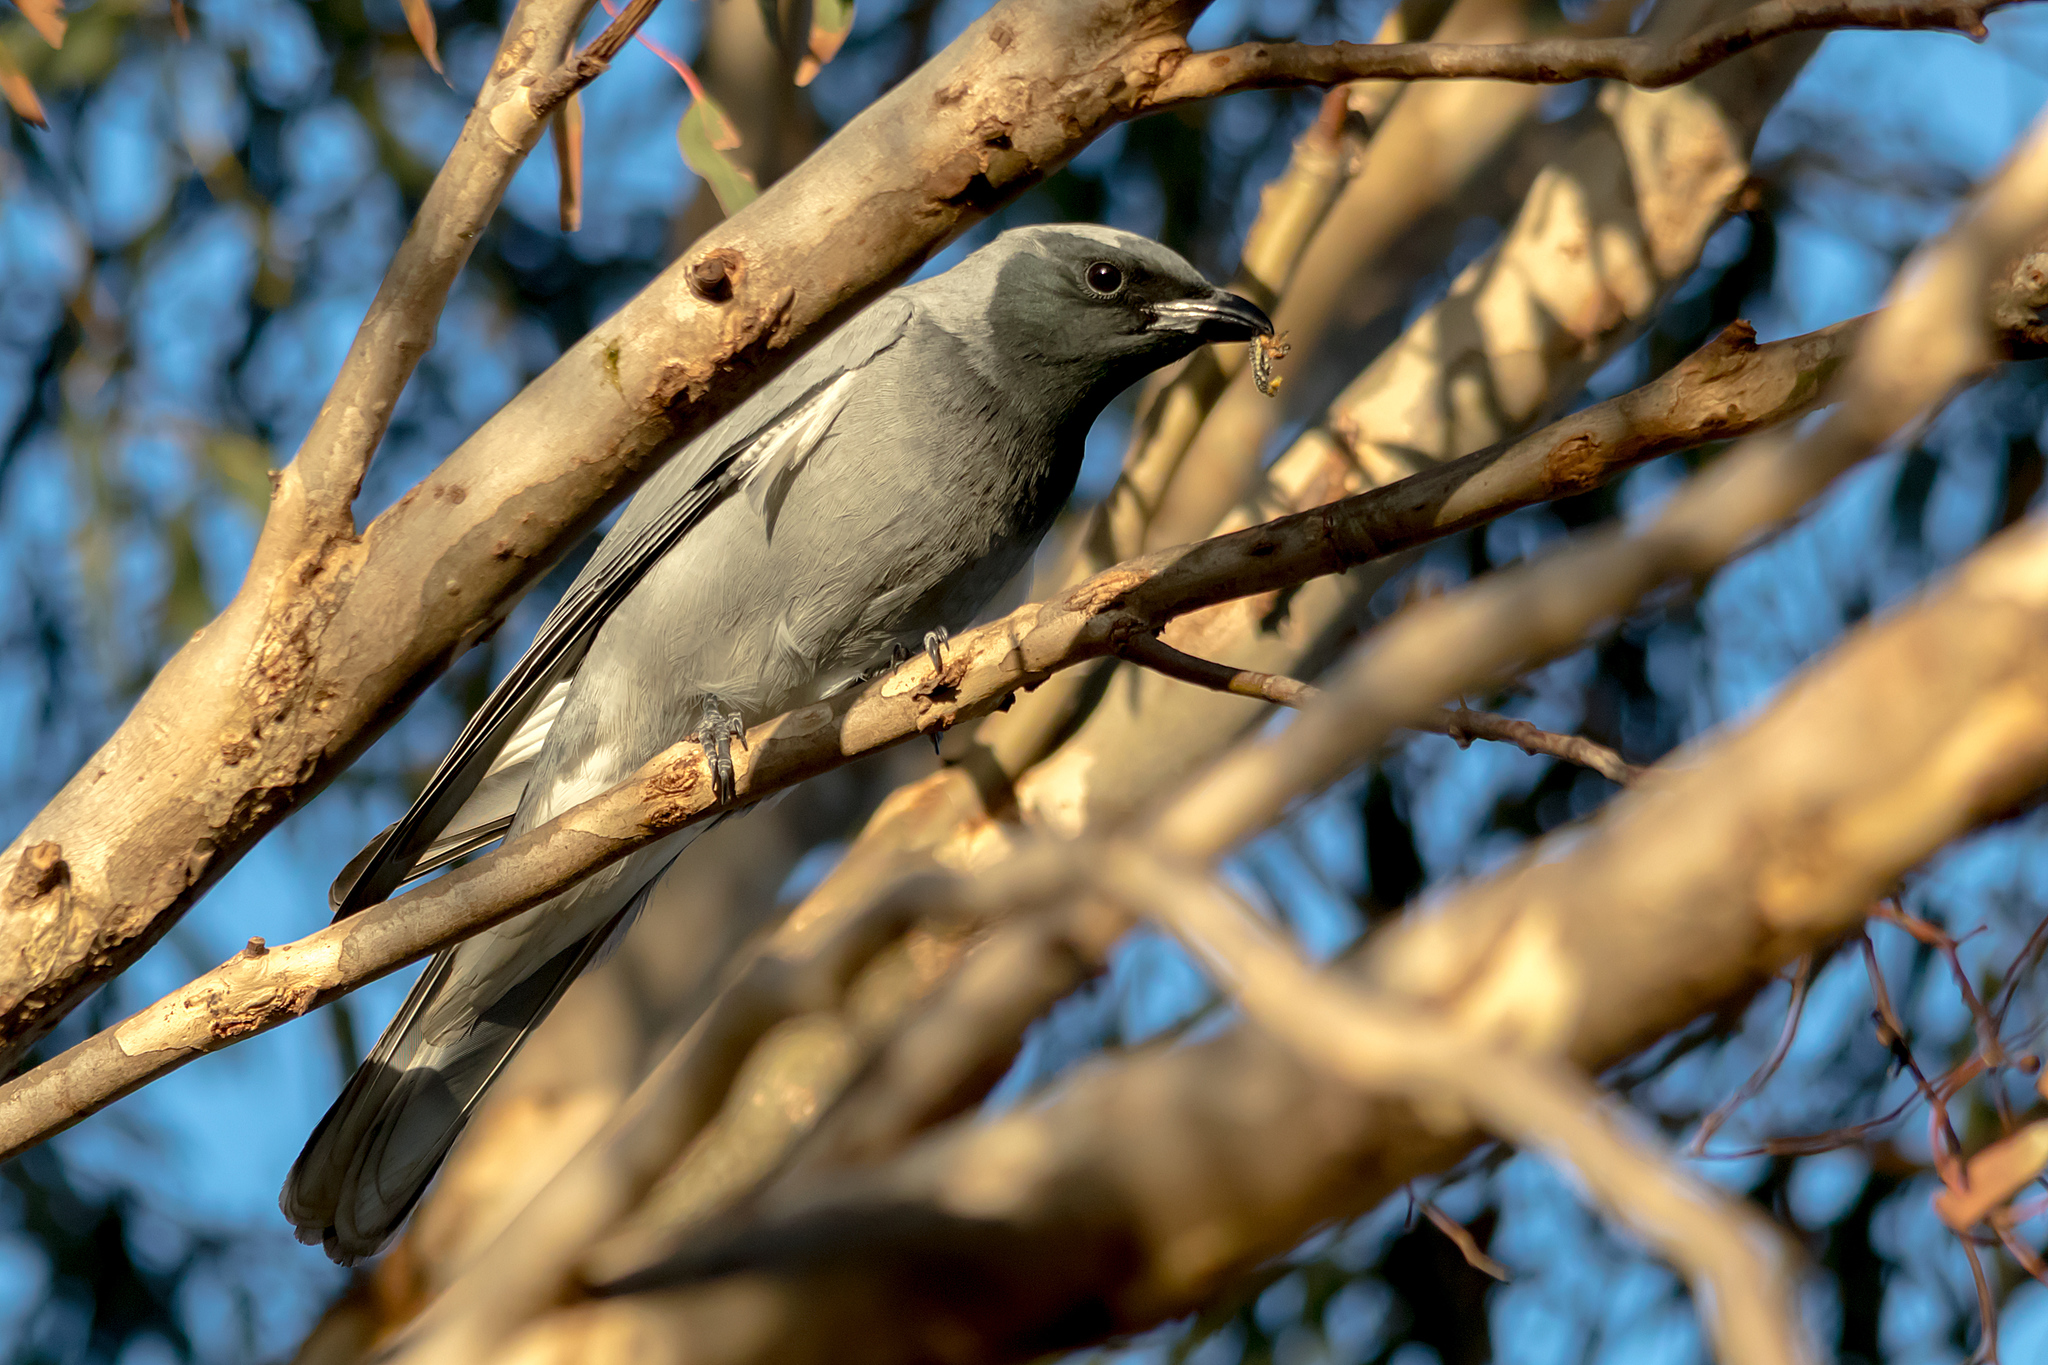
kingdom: Animalia
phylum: Chordata
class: Aves
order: Passeriformes
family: Campephagidae
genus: Coracina
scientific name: Coracina novaehollandiae
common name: Black-faced cuckooshrike
